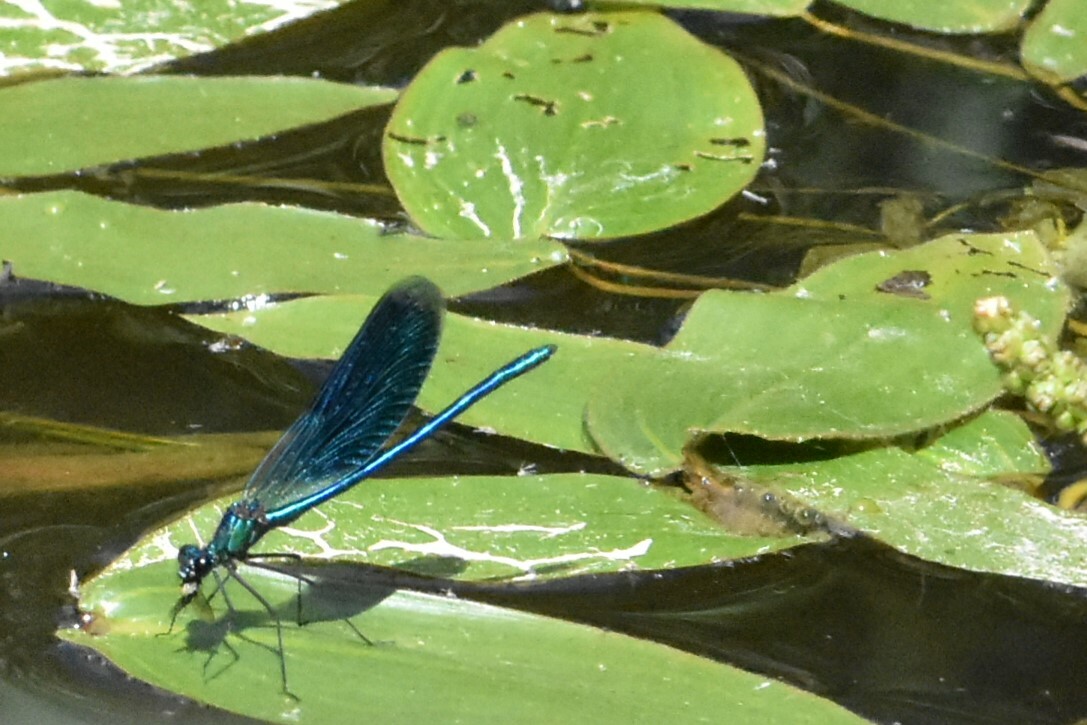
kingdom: Animalia
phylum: Arthropoda
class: Insecta
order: Odonata
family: Calopterygidae
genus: Calopteryx
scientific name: Calopteryx splendens
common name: Banded demoiselle
